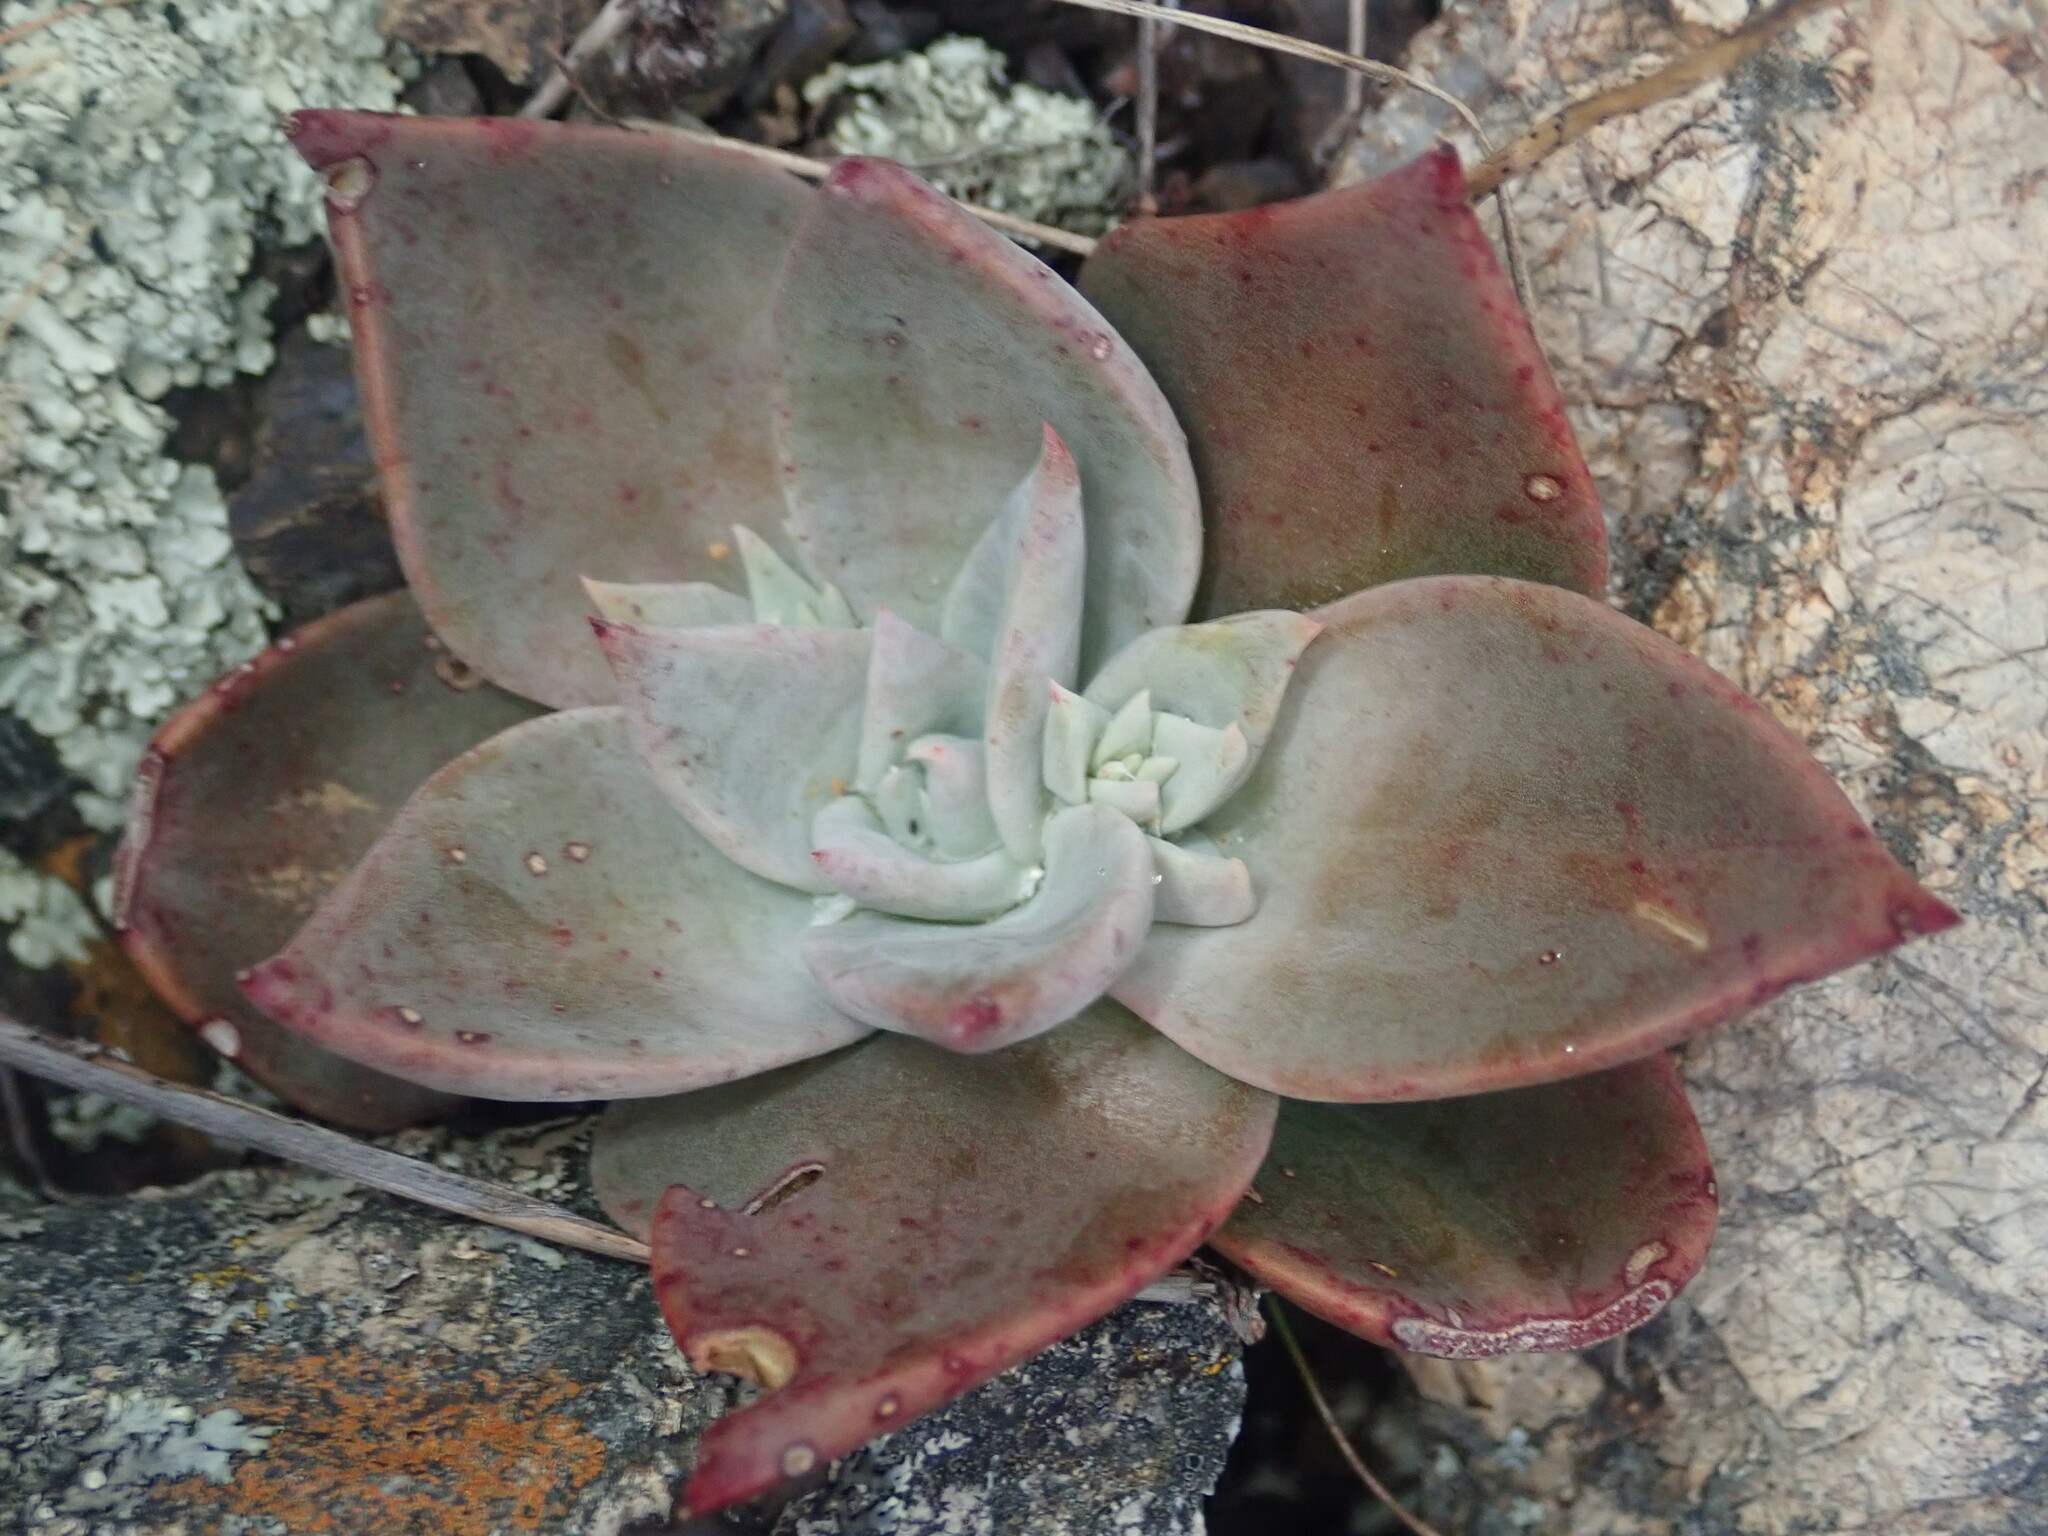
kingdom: Plantae
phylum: Tracheophyta
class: Magnoliopsida
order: Saxifragales
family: Crassulaceae
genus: Dudleya
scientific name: Dudleya cymosa
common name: Canyon dudleya
